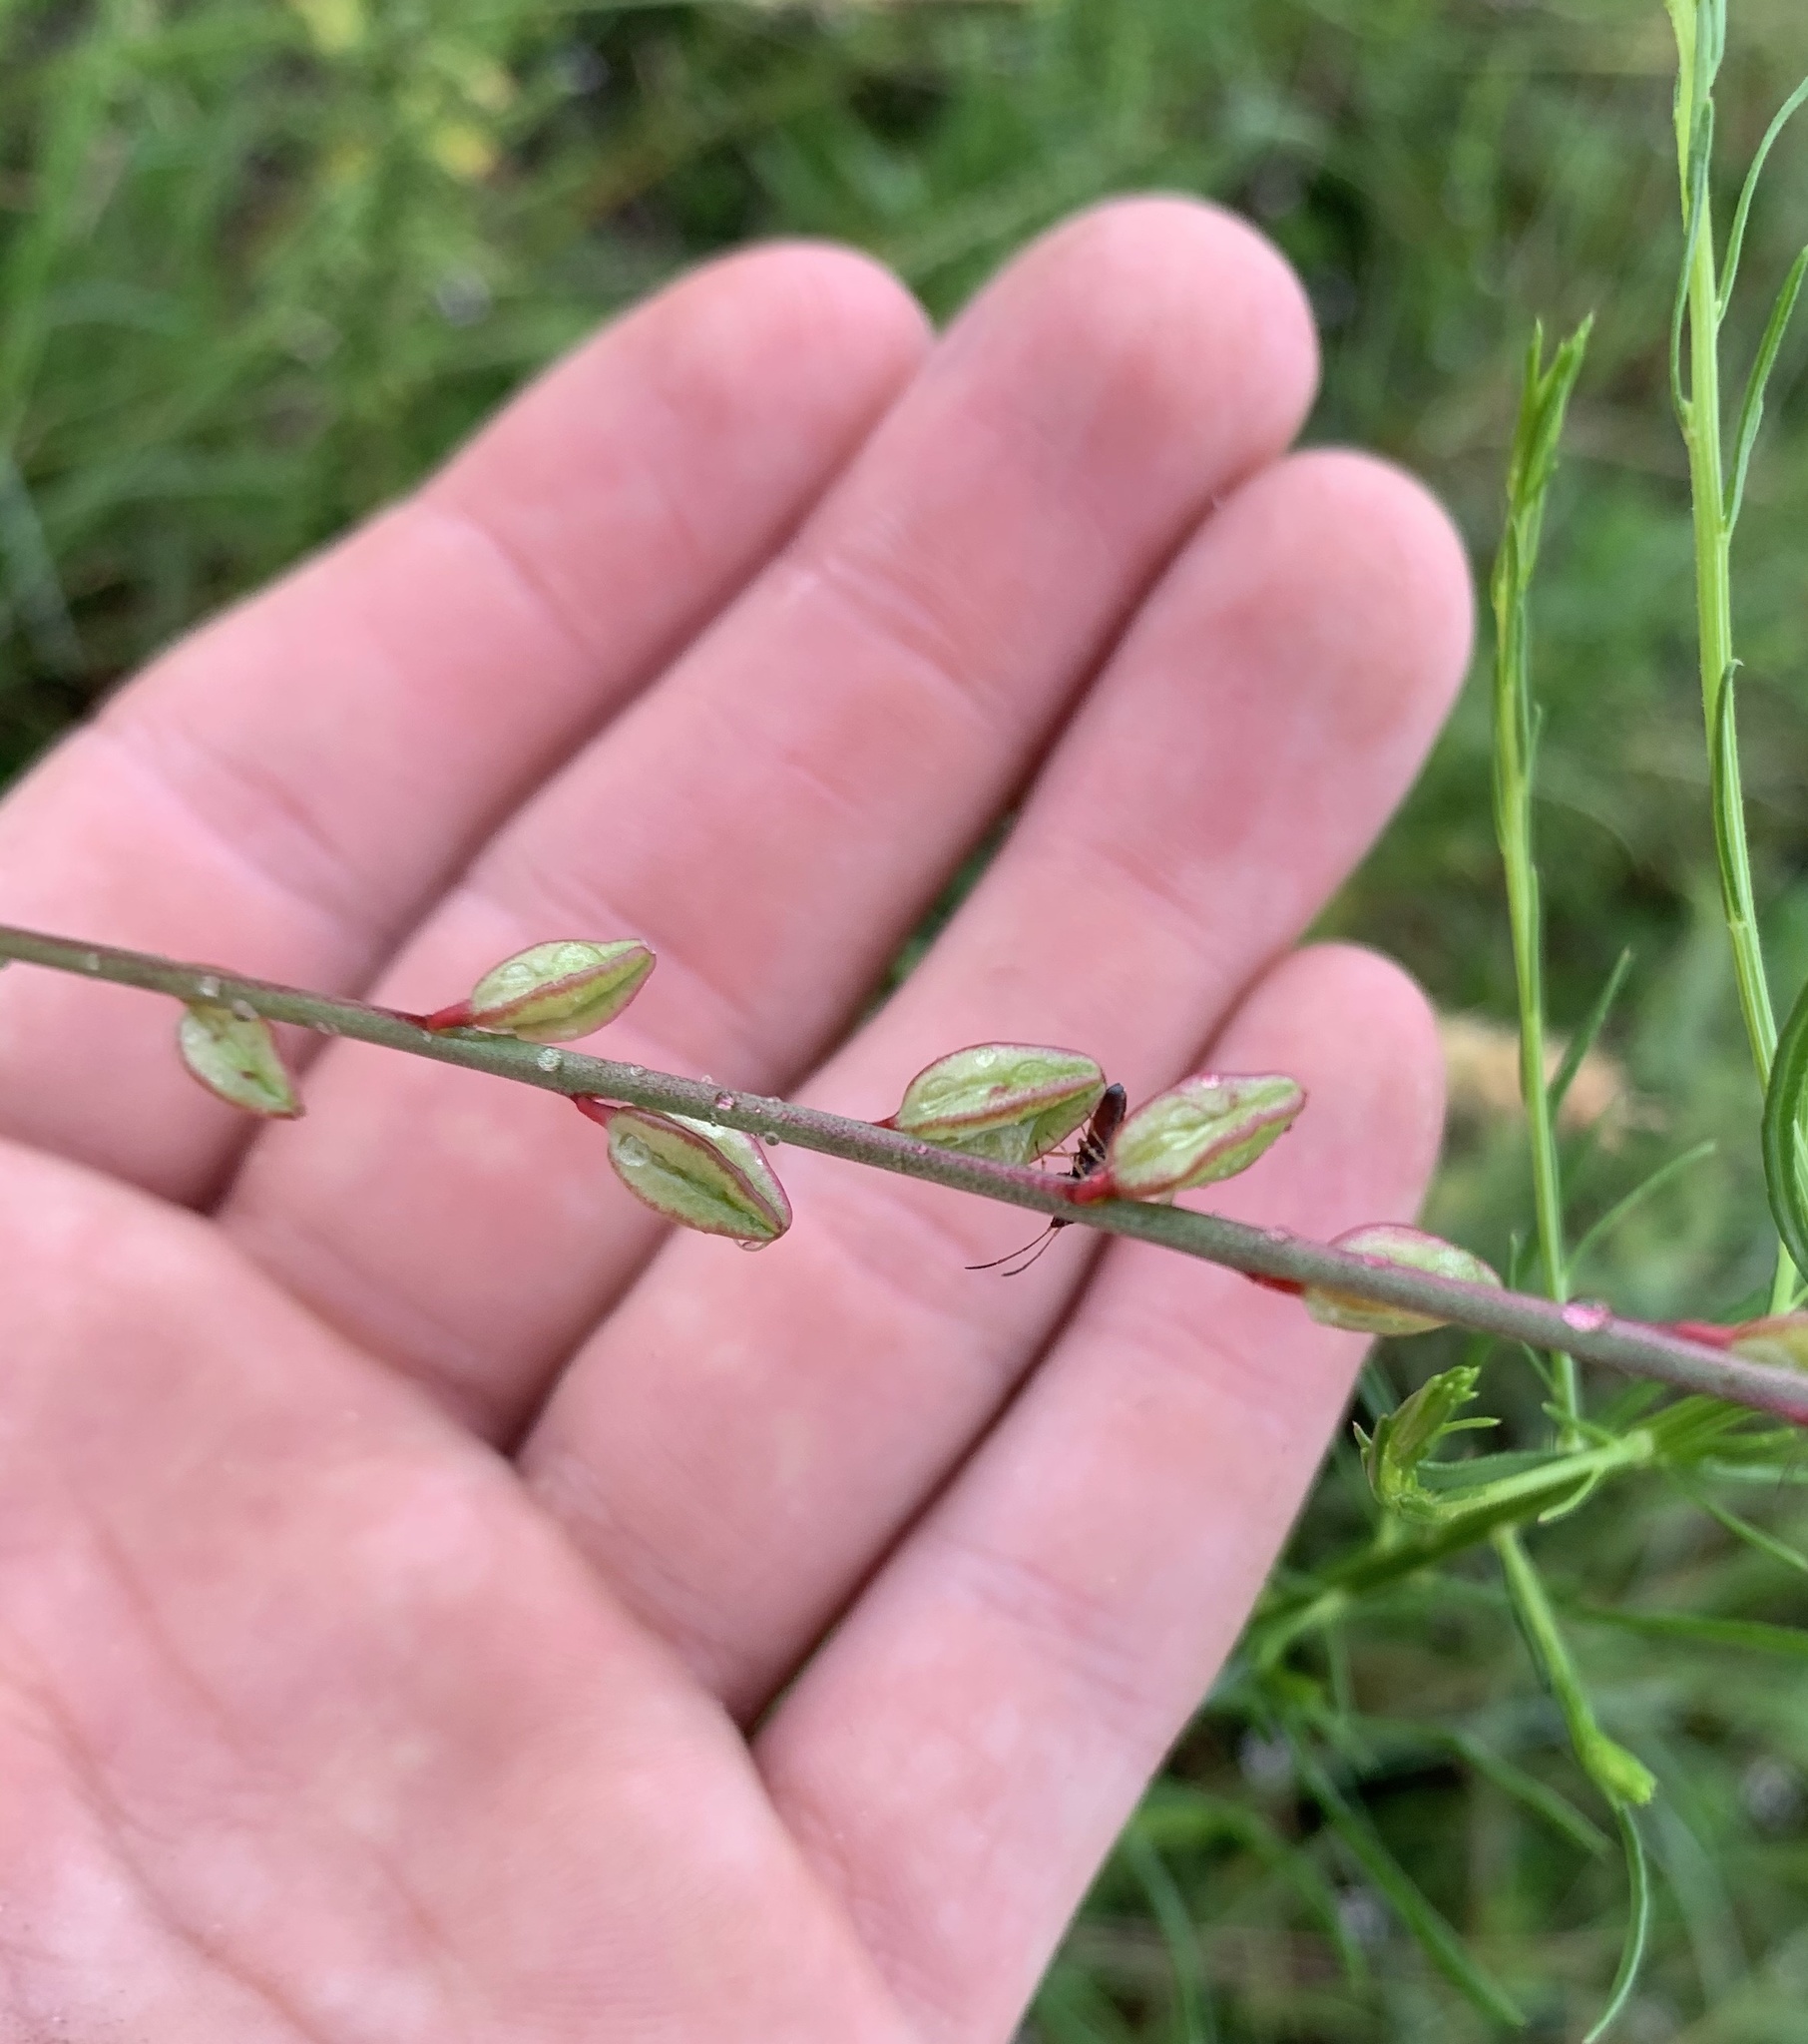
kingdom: Plantae
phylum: Tracheophyta
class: Magnoliopsida
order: Myrtales
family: Onagraceae
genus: Oenothera
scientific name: Oenothera simulans
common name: Southern beeblossom
